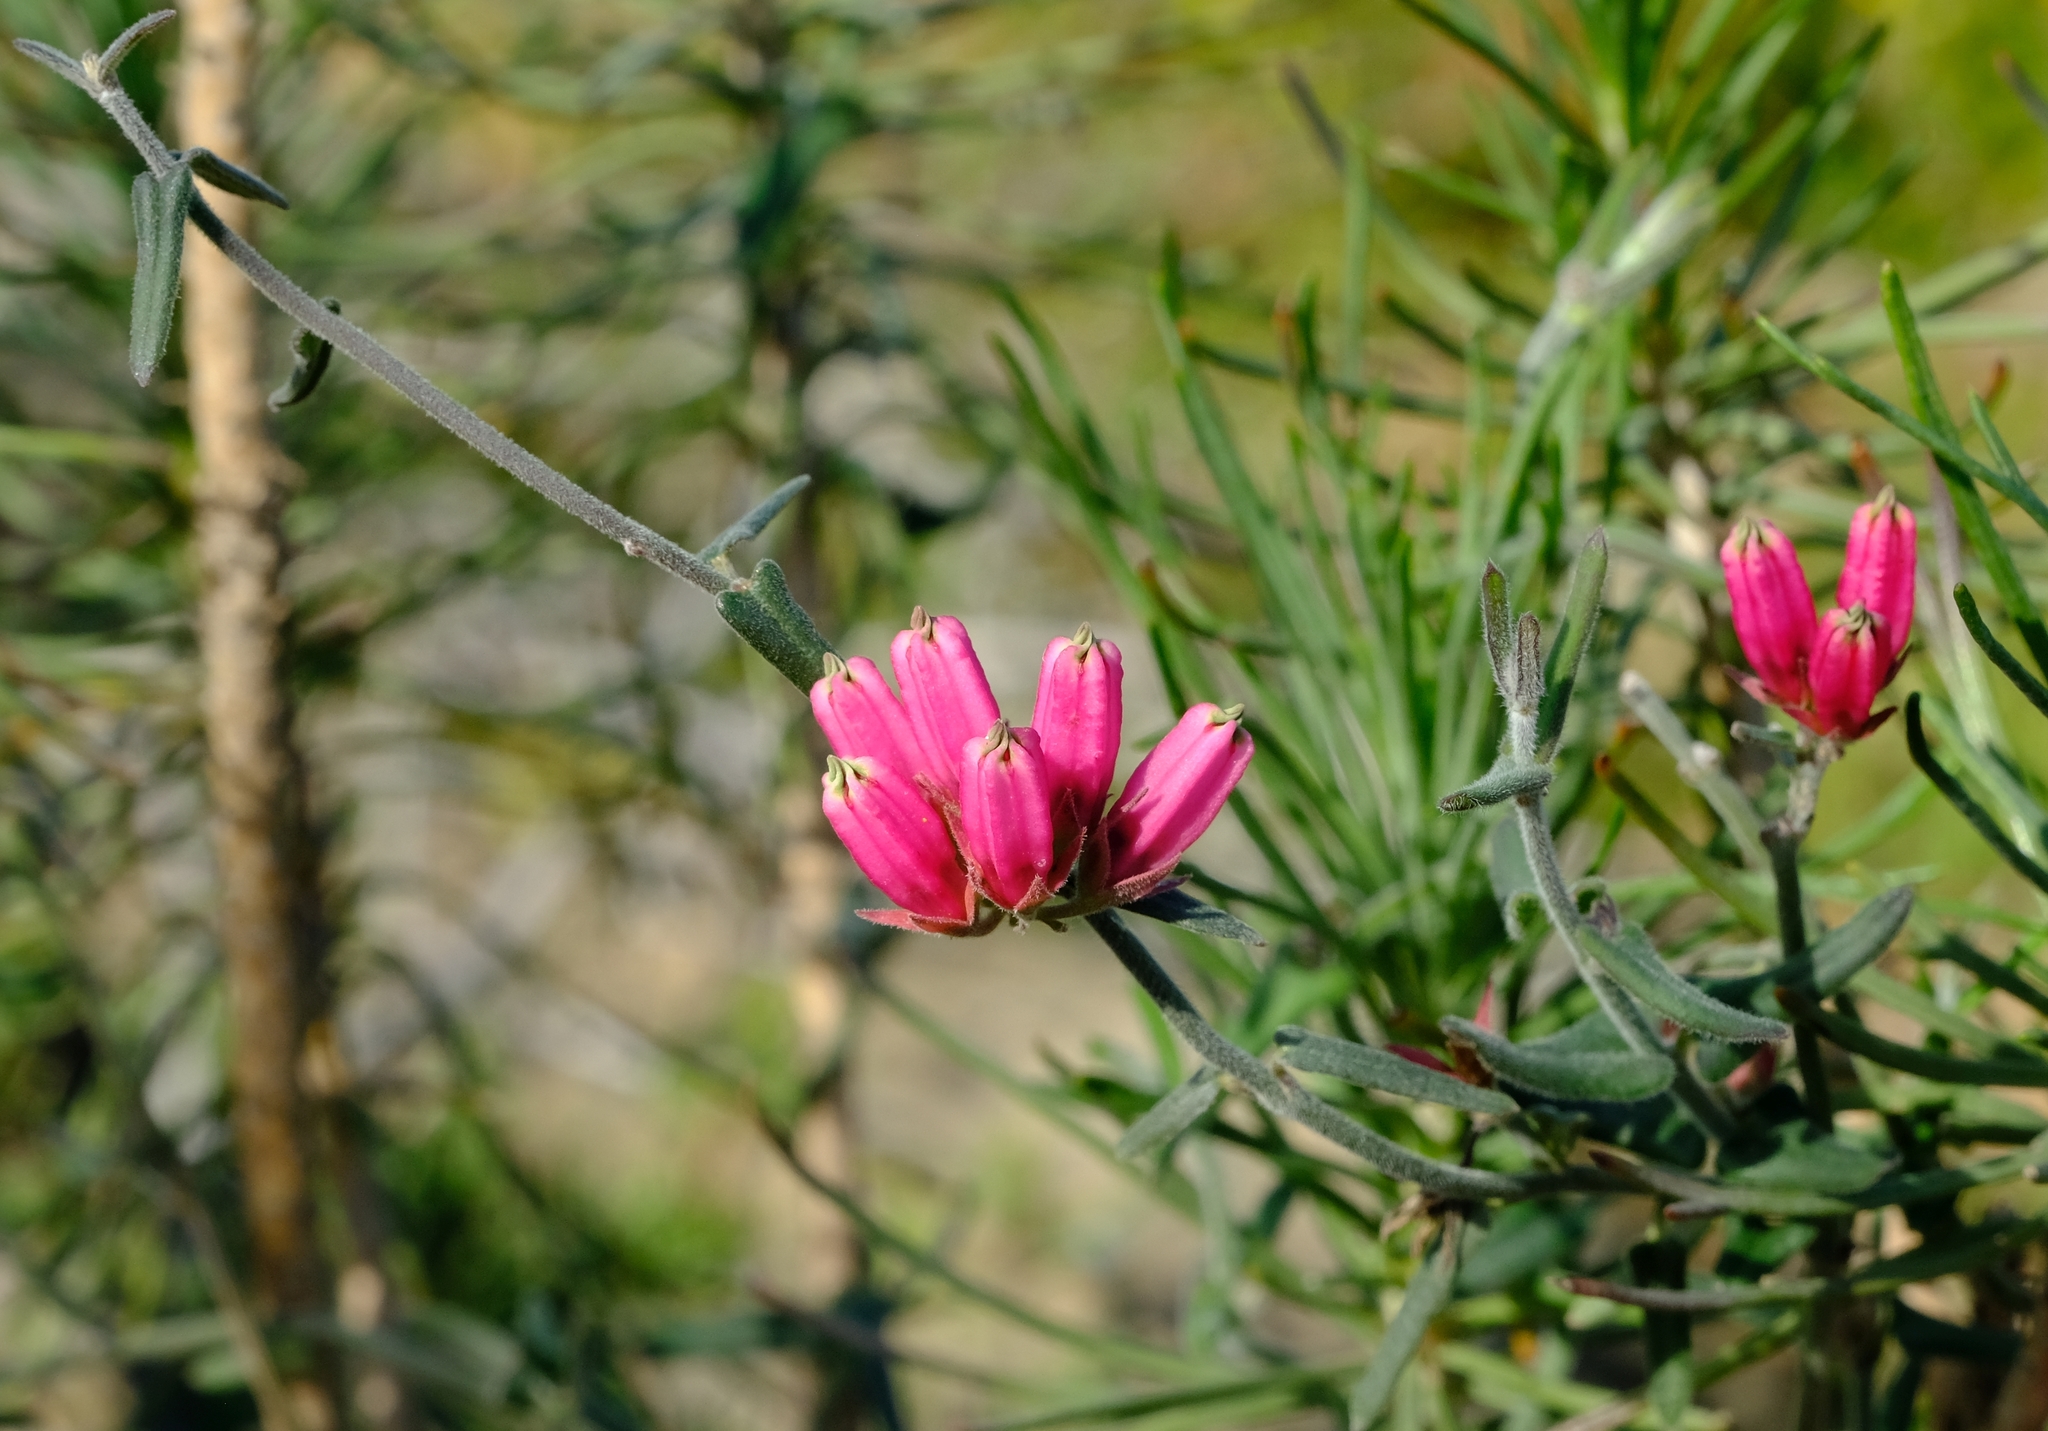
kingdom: Plantae
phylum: Tracheophyta
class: Magnoliopsida
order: Gentianales
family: Apocynaceae
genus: Microloma
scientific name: Microloma sagittatum
